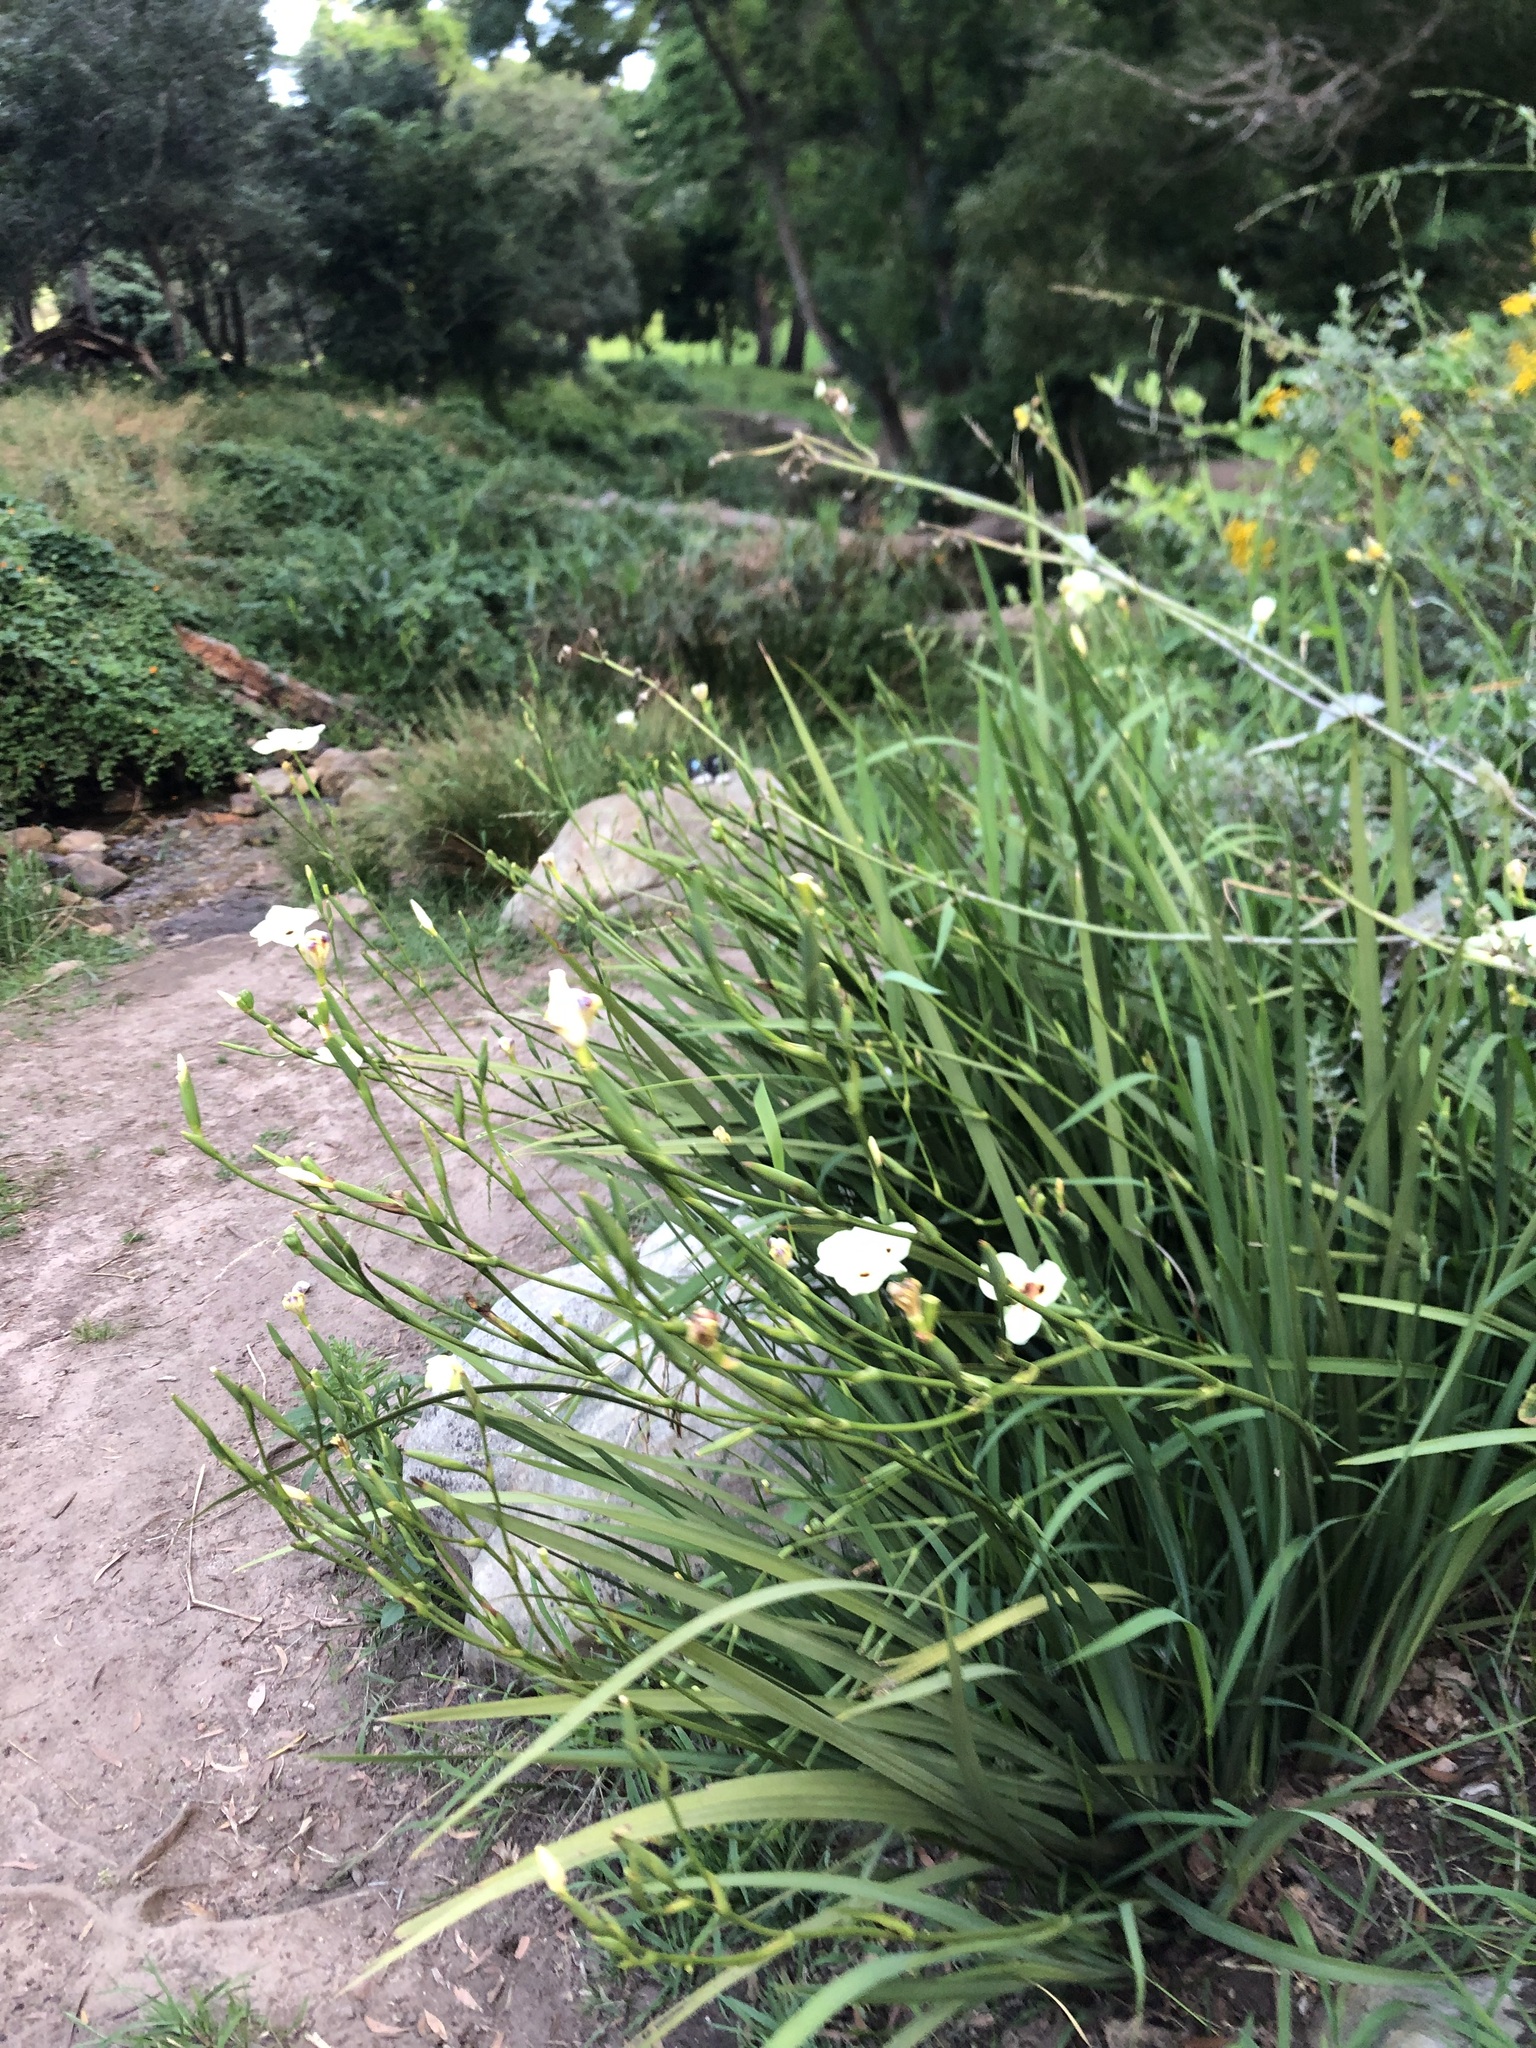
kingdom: Plantae
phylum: Tracheophyta
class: Liliopsida
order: Asparagales
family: Iridaceae
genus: Dietes
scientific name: Dietes bicolor
